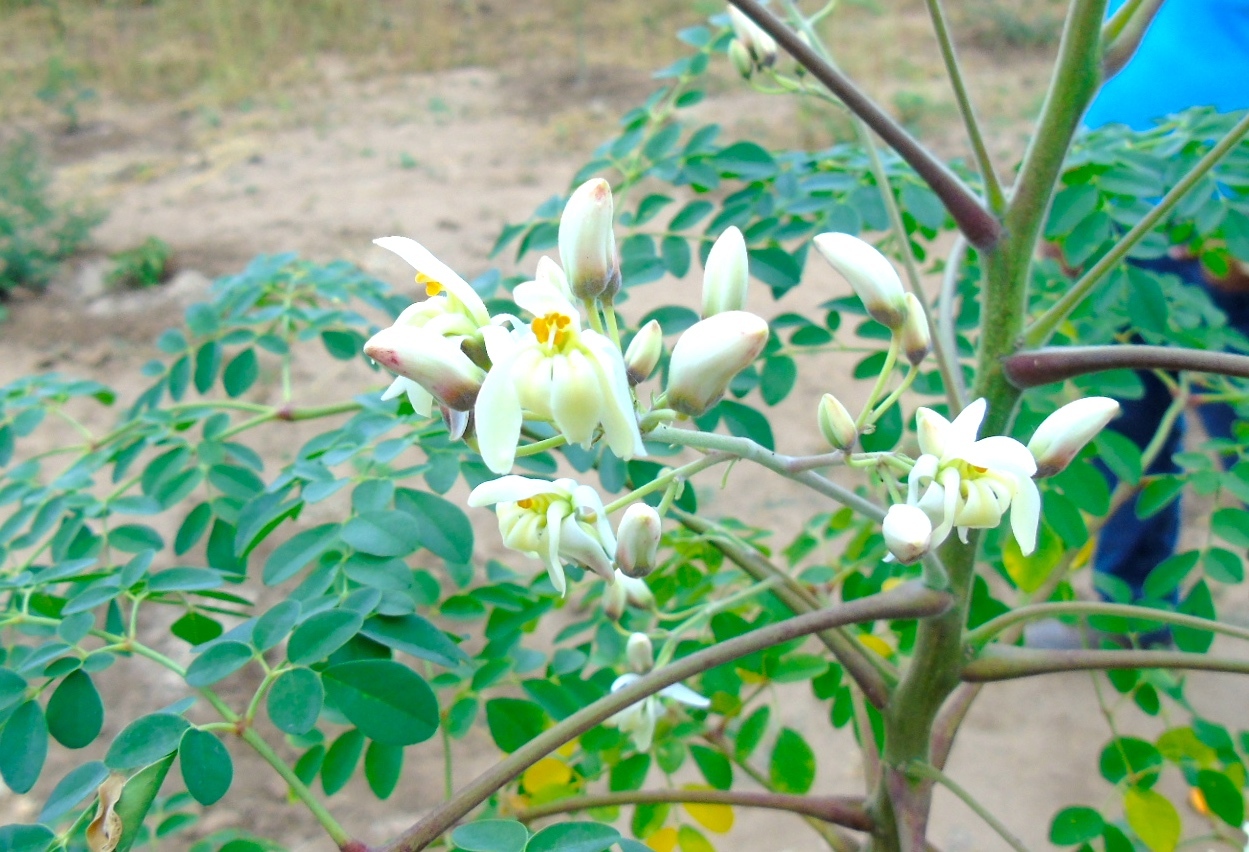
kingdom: Plantae
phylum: Tracheophyta
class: Magnoliopsida
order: Brassicales
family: Moringaceae
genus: Moringa
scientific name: Moringa oleifera
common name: Horseradish-tree
